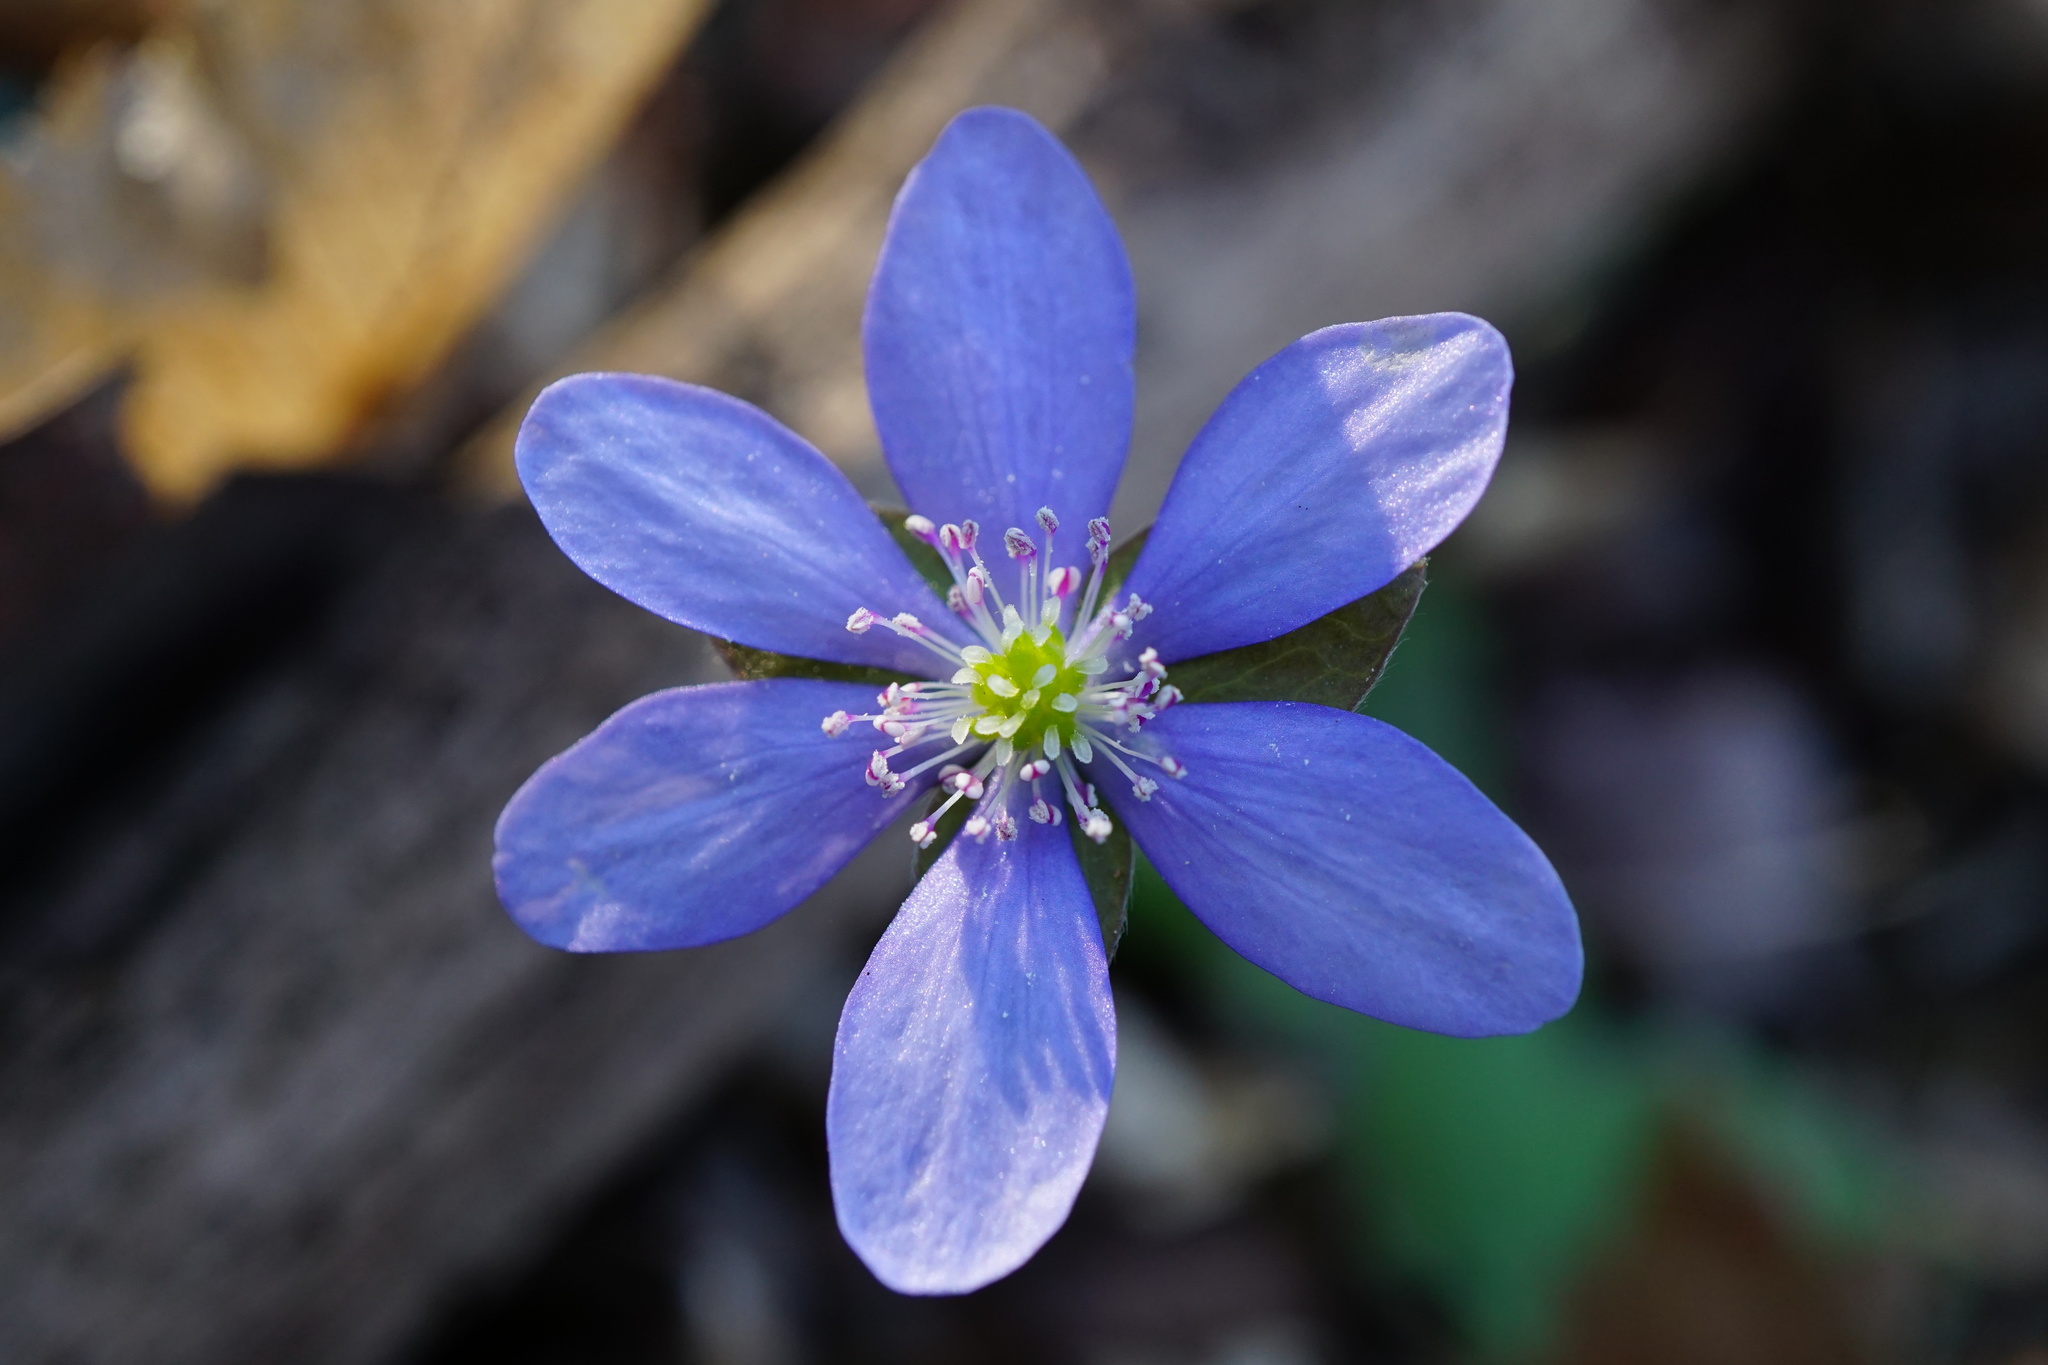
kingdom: Plantae
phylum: Tracheophyta
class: Magnoliopsida
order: Ranunculales
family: Ranunculaceae
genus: Hepatica
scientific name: Hepatica nobilis
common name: Liverleaf
